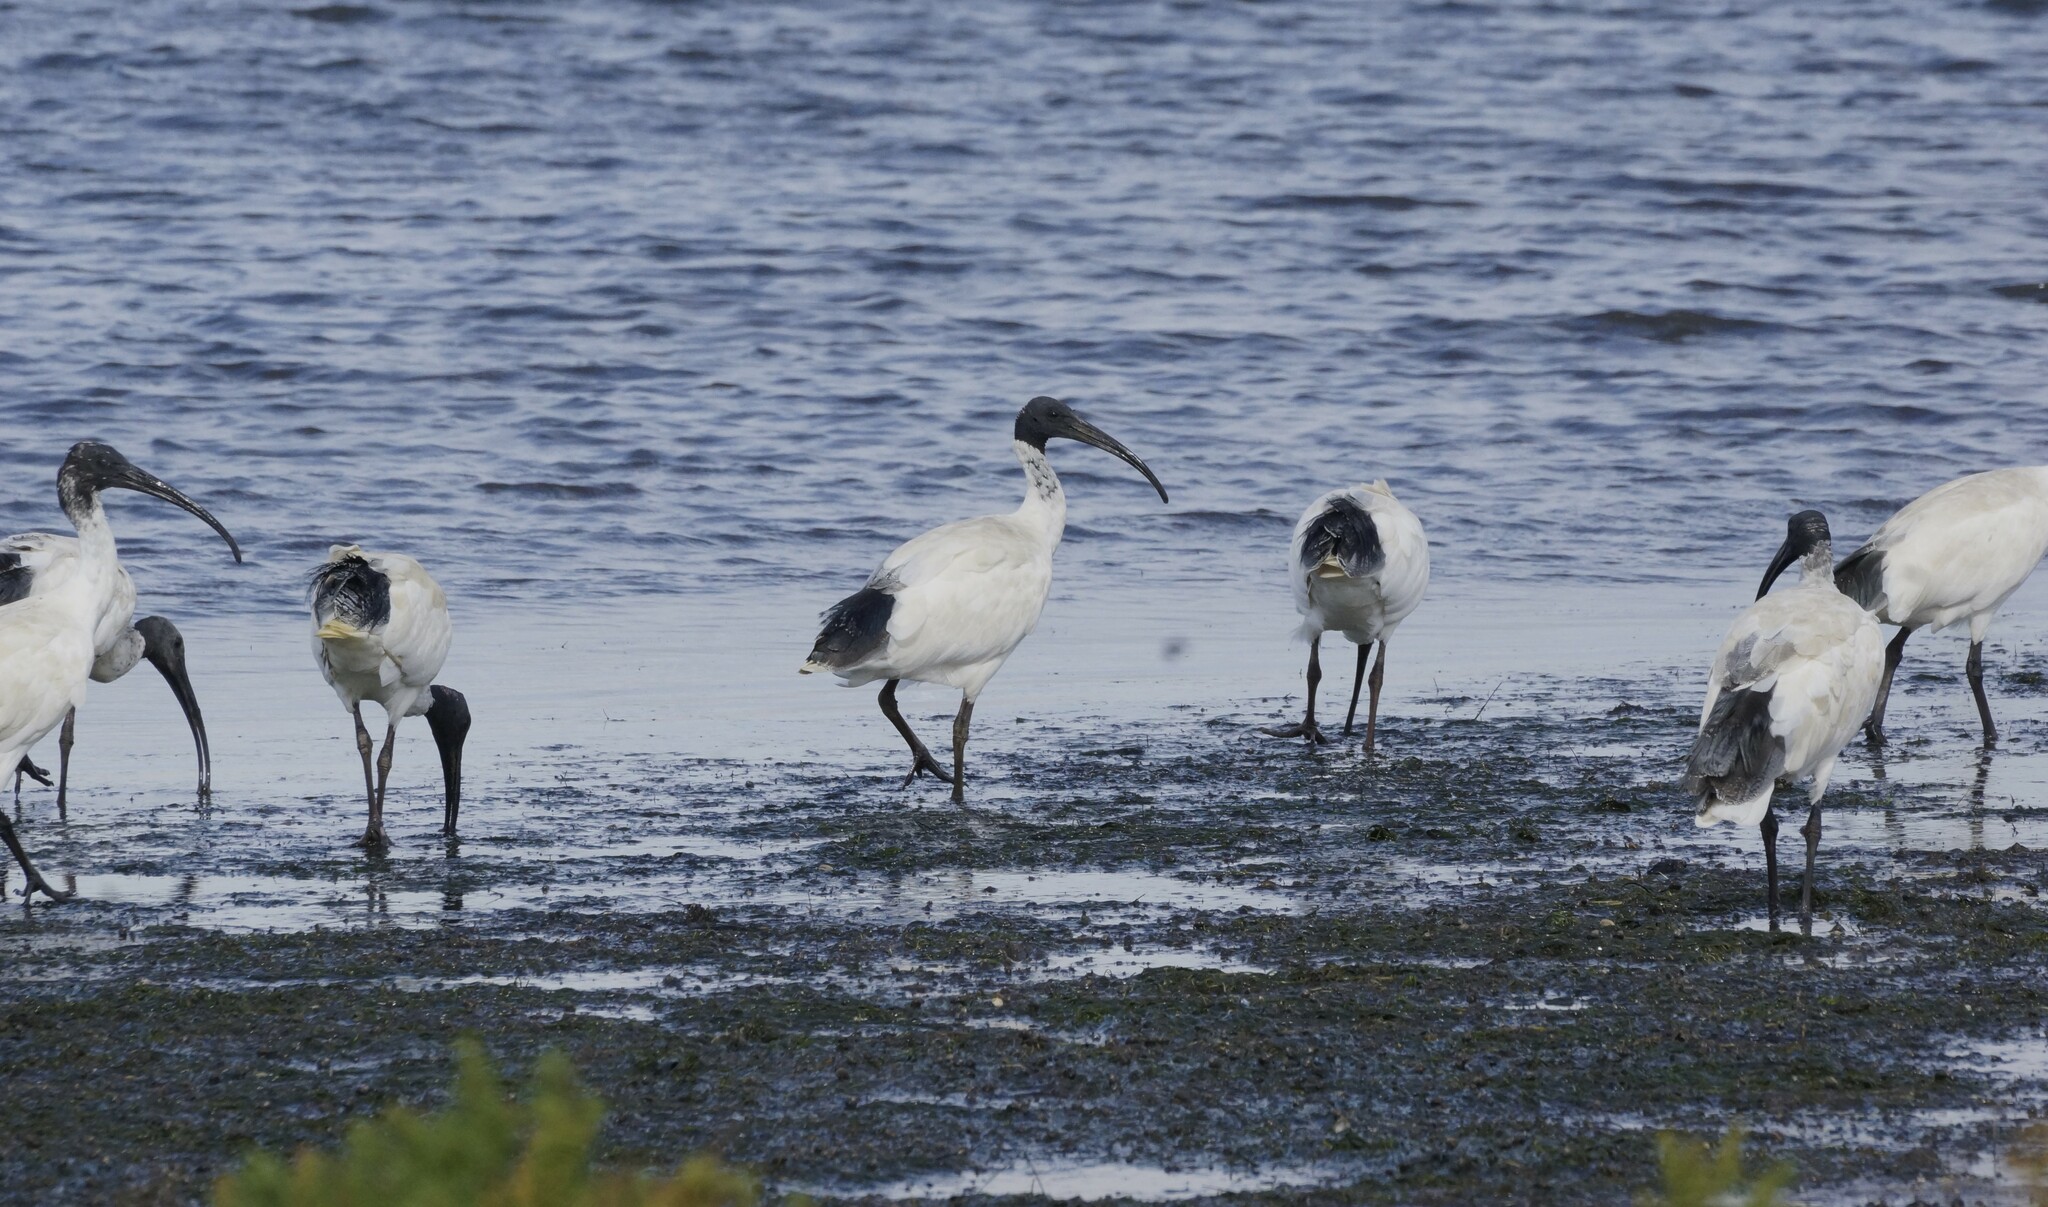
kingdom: Animalia
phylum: Chordata
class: Aves
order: Pelecaniformes
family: Threskiornithidae
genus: Threskiornis
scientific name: Threskiornis molucca
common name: Australian white ibis
